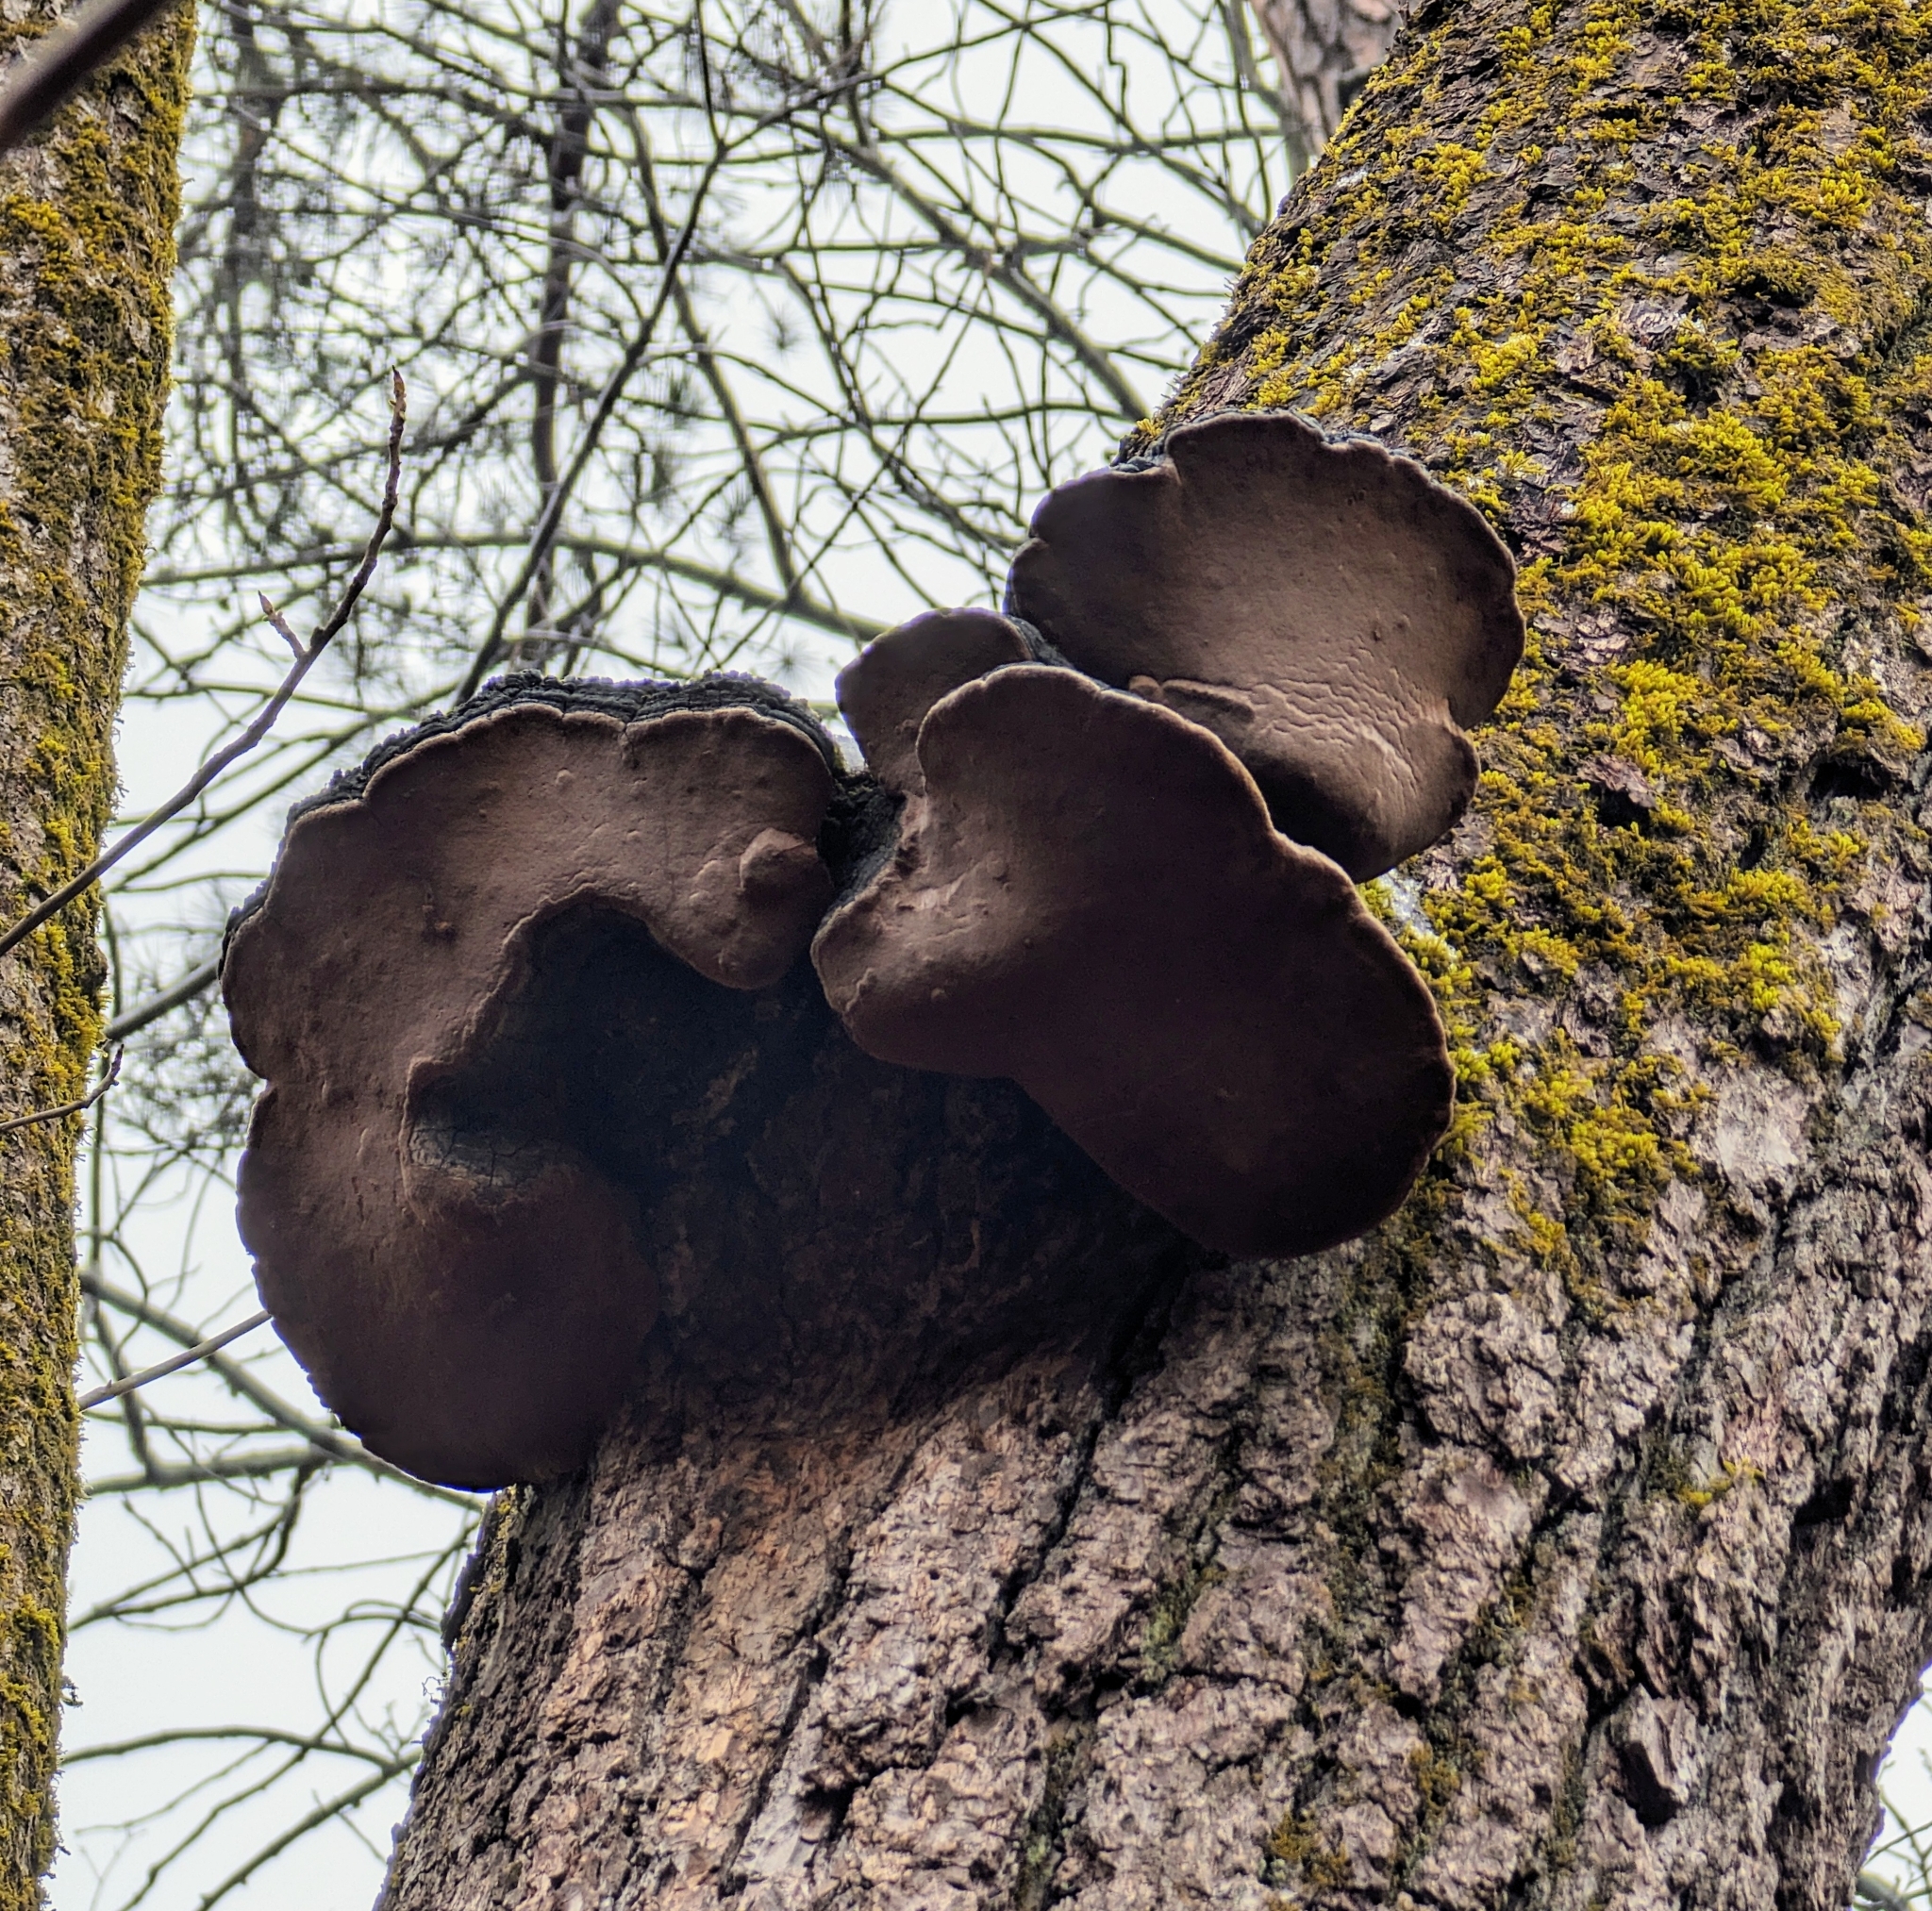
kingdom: Fungi
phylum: Basidiomycota
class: Agaricomycetes
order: Hymenochaetales
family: Hymenochaetaceae
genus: Phellinus
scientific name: Phellinus robiniae
